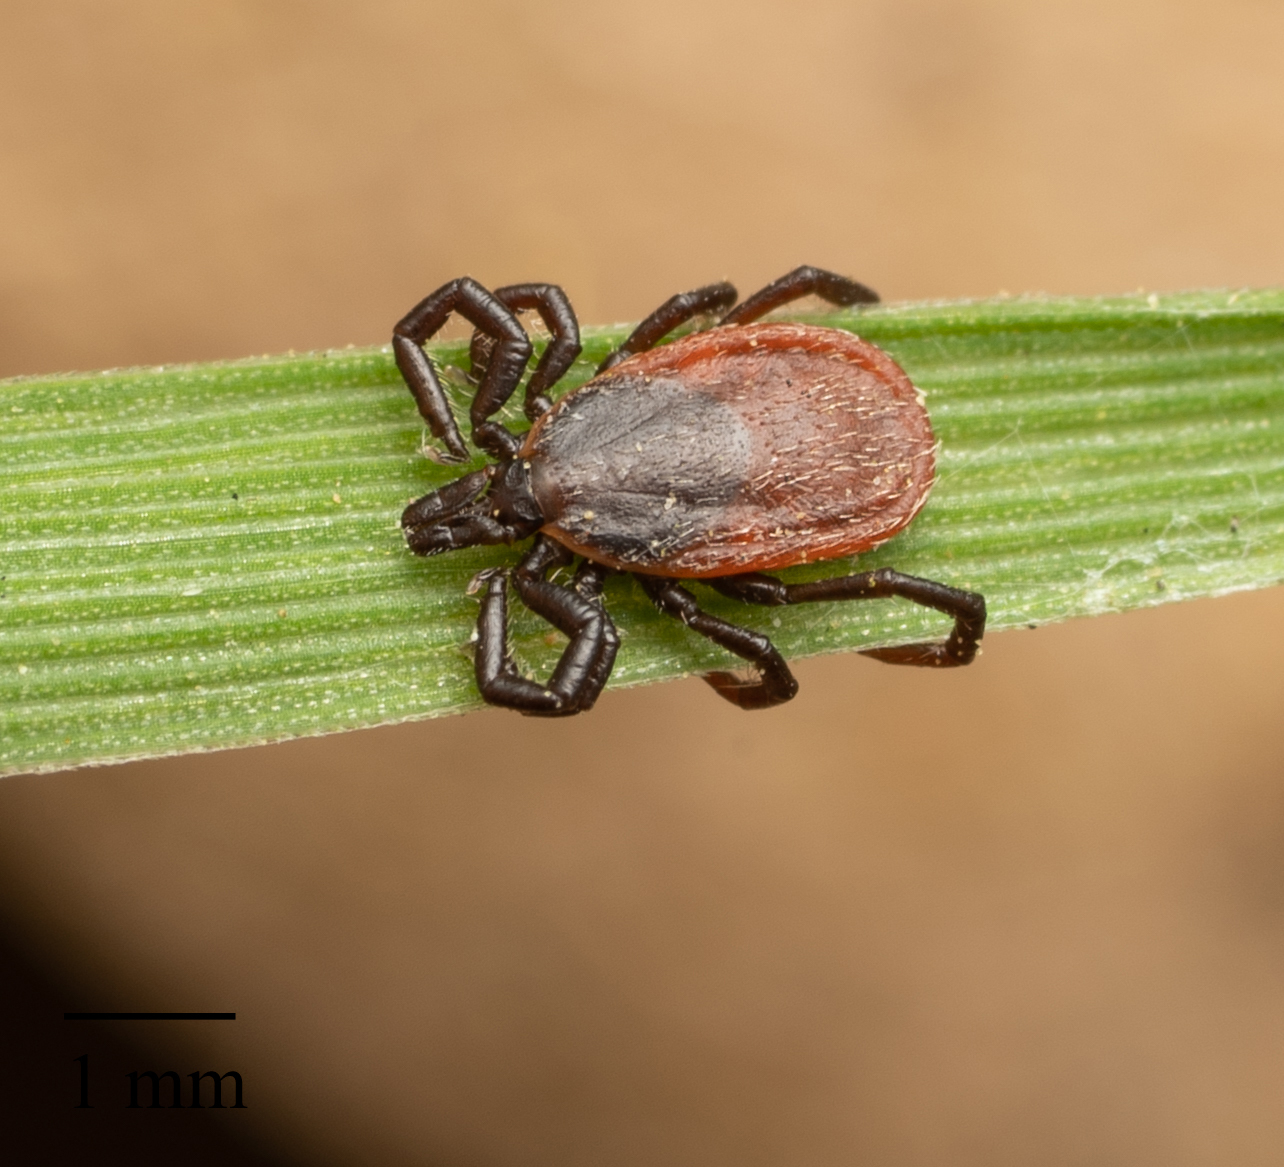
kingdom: Animalia
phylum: Arthropoda
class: Arachnida
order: Ixodida
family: Ixodidae
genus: Ixodes
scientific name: Ixodes pacificus
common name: California black-legged tick
